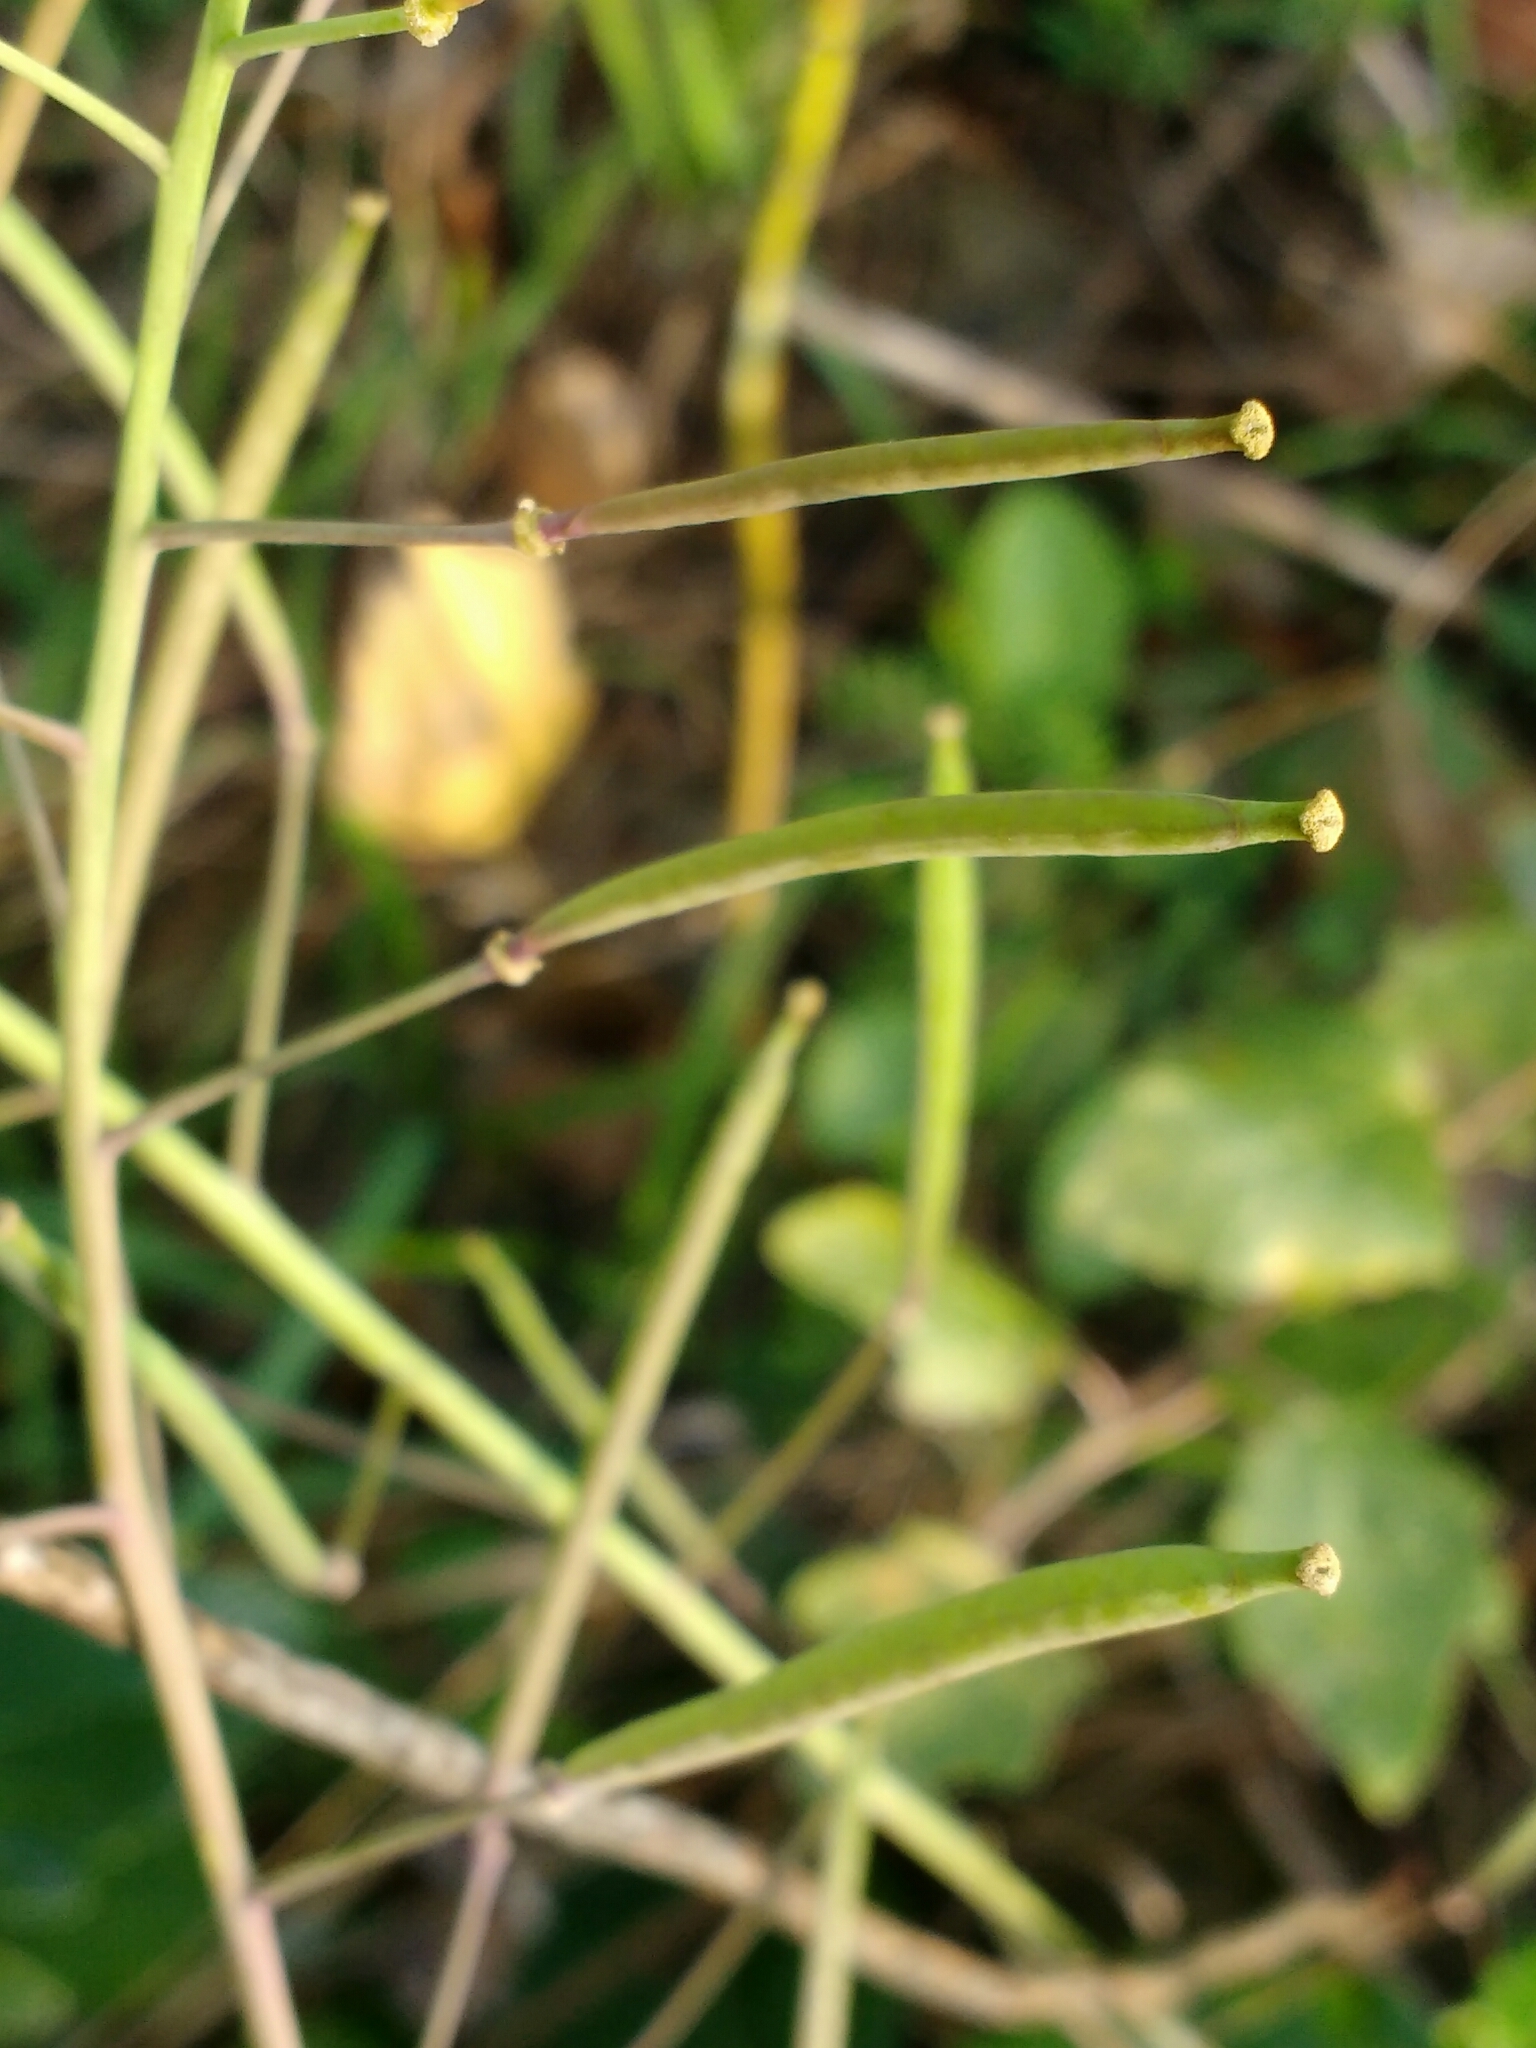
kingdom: Plantae
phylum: Tracheophyta
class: Magnoliopsida
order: Brassicales
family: Brassicaceae
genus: Diplotaxis
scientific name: Diplotaxis tenuifolia
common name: Perennial wall-rocket
